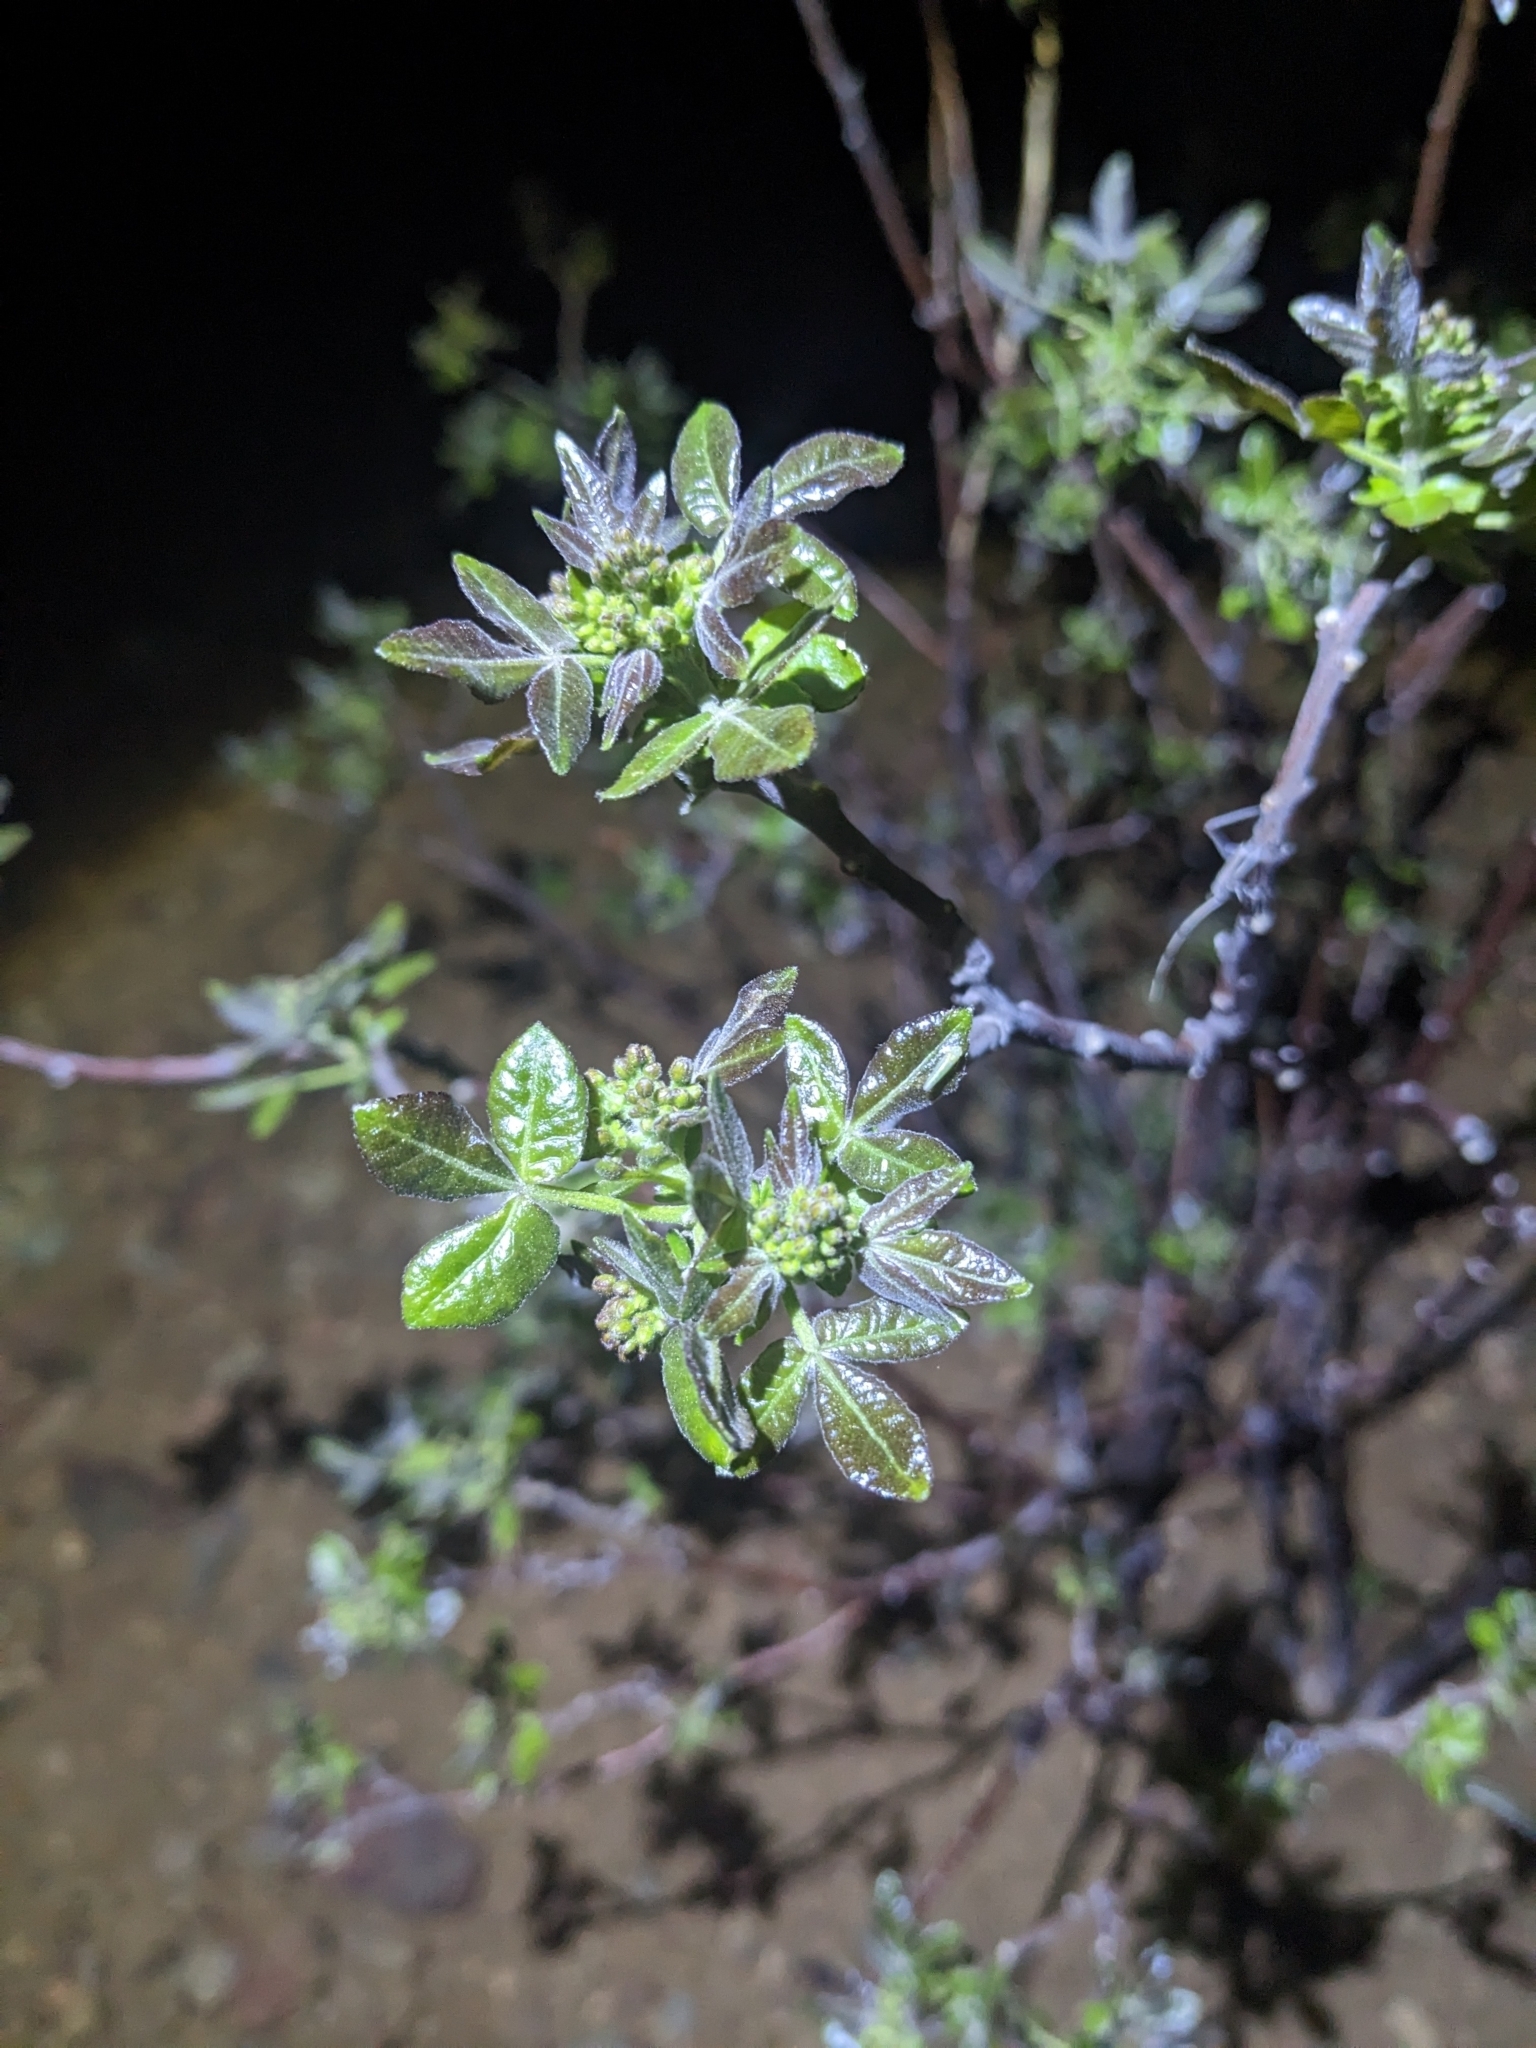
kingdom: Plantae
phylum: Tracheophyta
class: Magnoliopsida
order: Sapindales
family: Rutaceae
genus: Ptelea
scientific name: Ptelea trifoliata
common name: Common hop-tree
